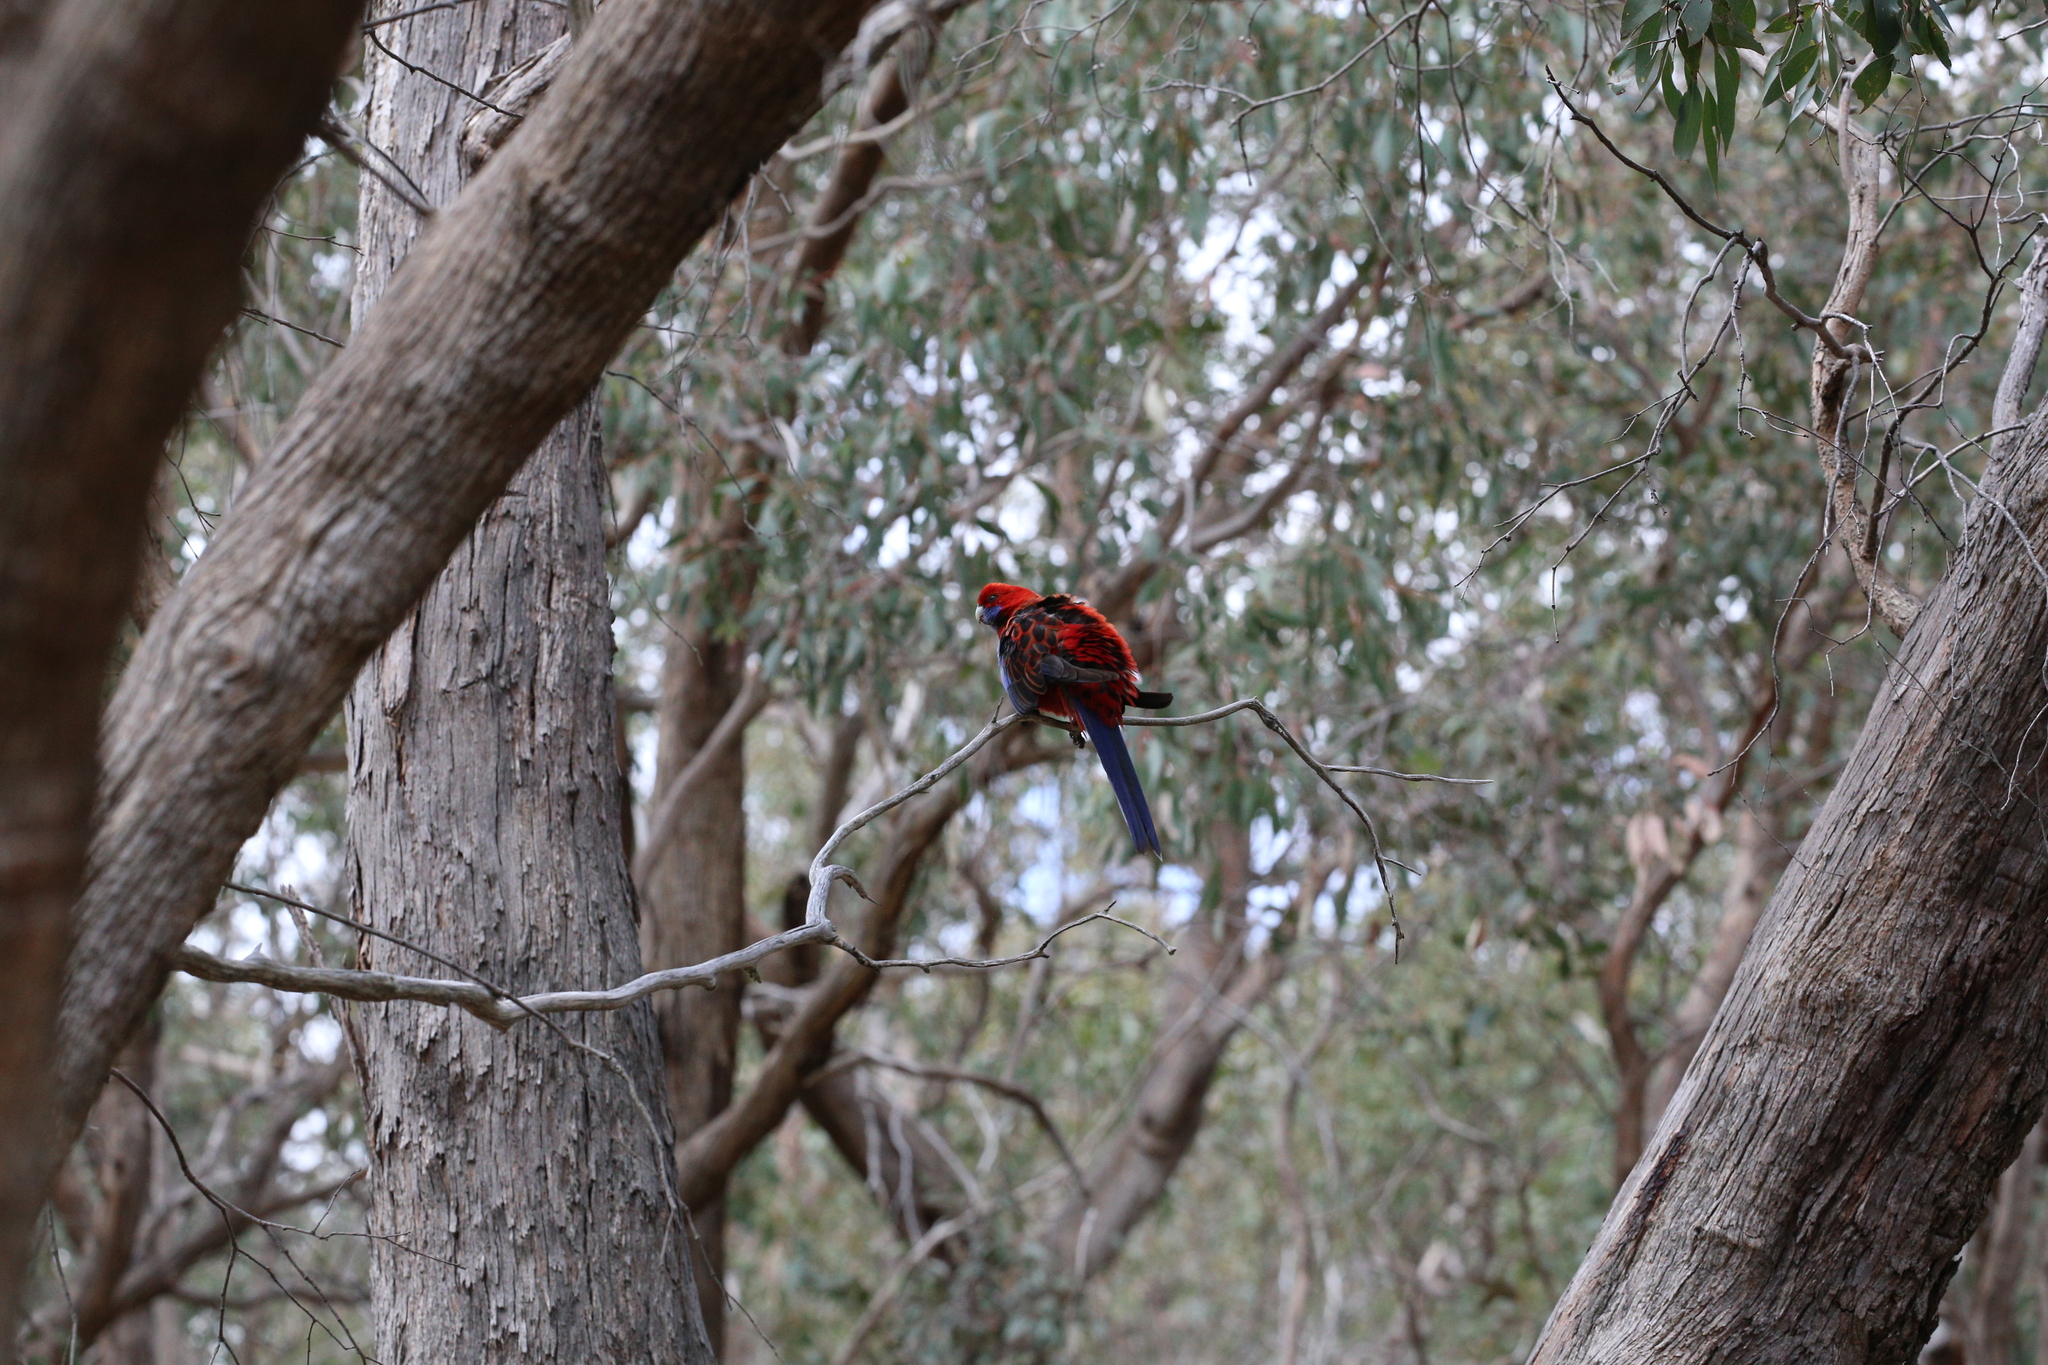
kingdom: Animalia
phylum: Chordata
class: Aves
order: Psittaciformes
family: Psittacidae
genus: Platycercus
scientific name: Platycercus elegans
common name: Crimson rosella
